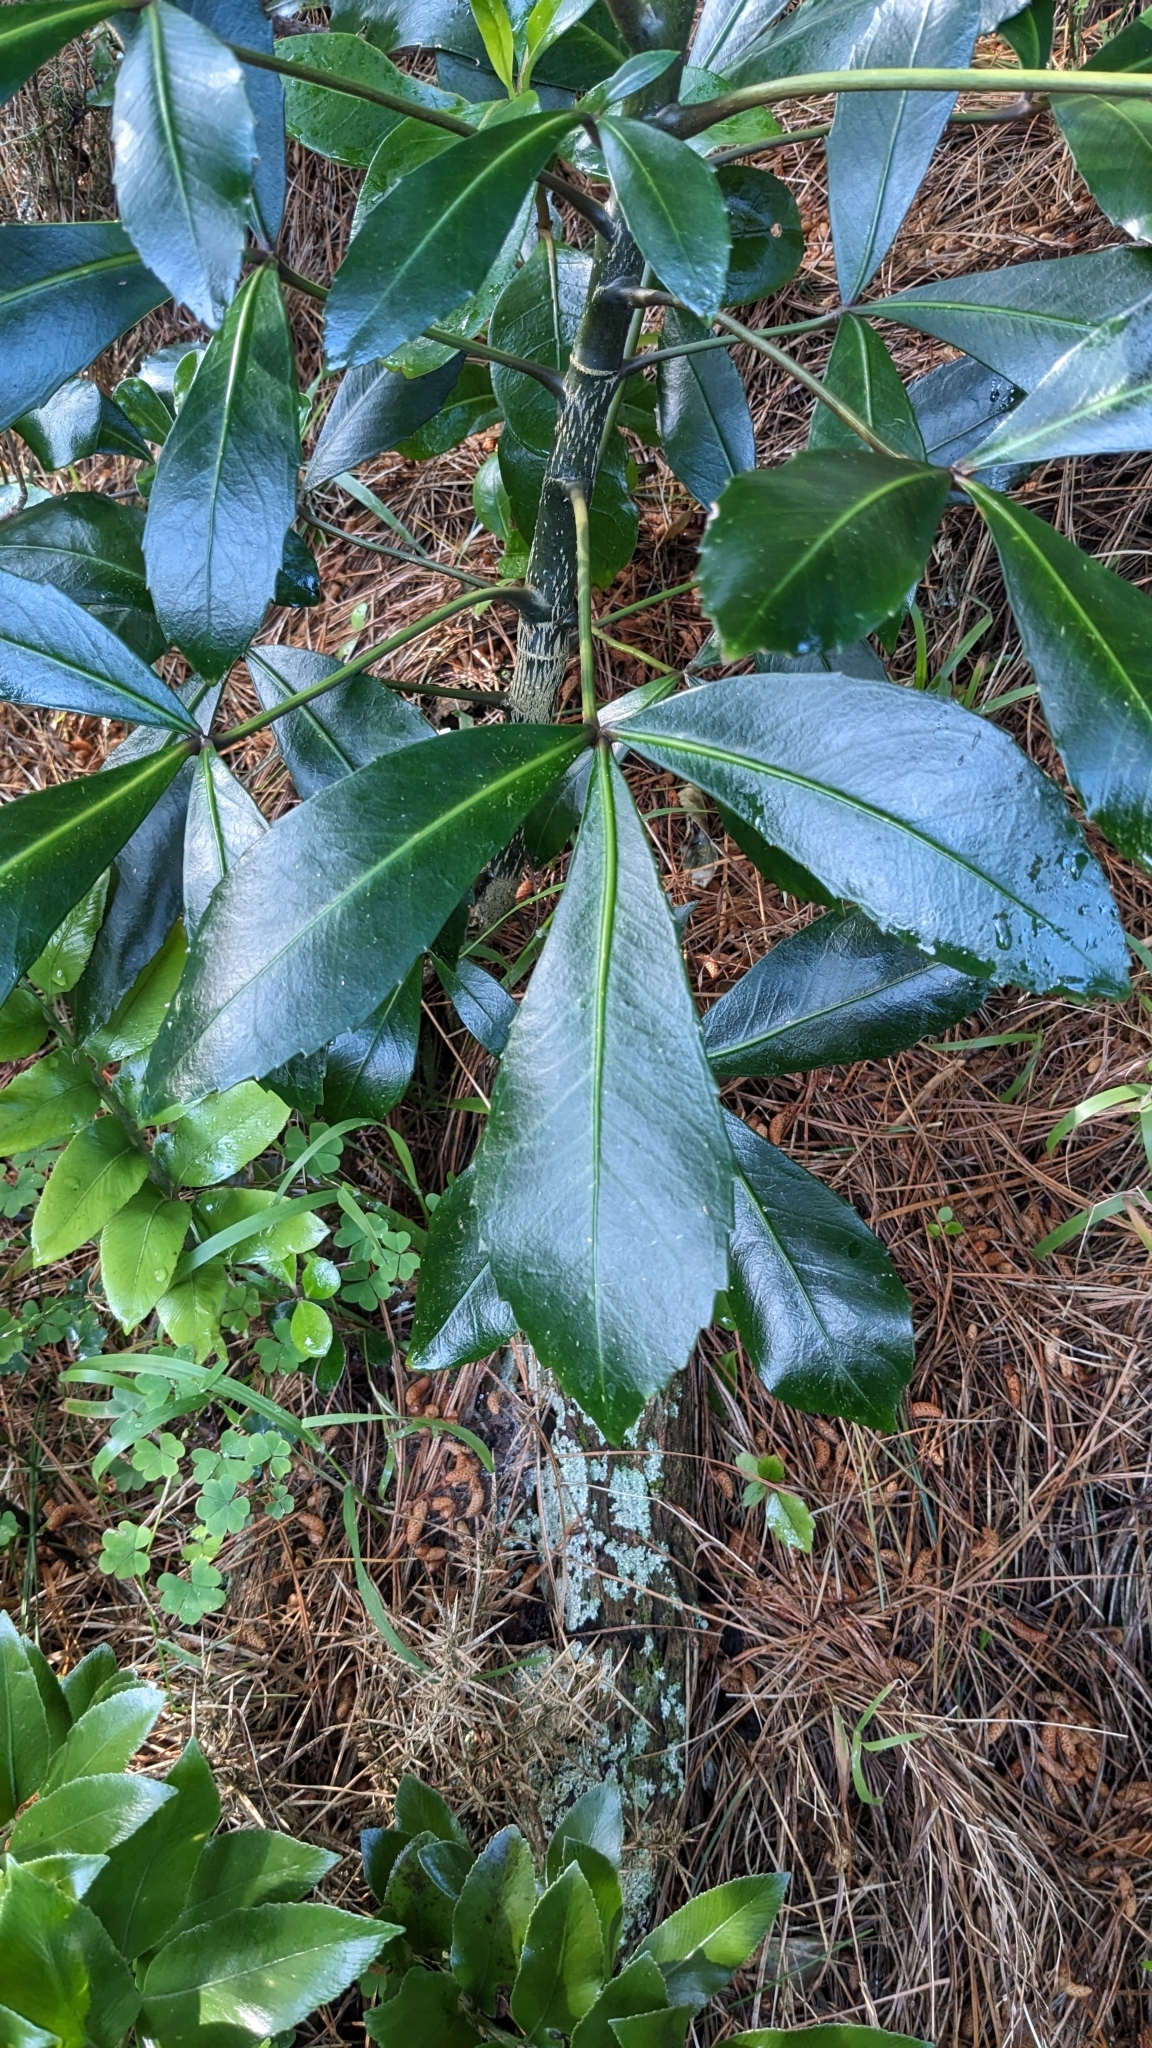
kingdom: Plantae
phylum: Tracheophyta
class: Magnoliopsida
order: Apiales
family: Araliaceae
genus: Pseudopanax
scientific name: Pseudopanax
